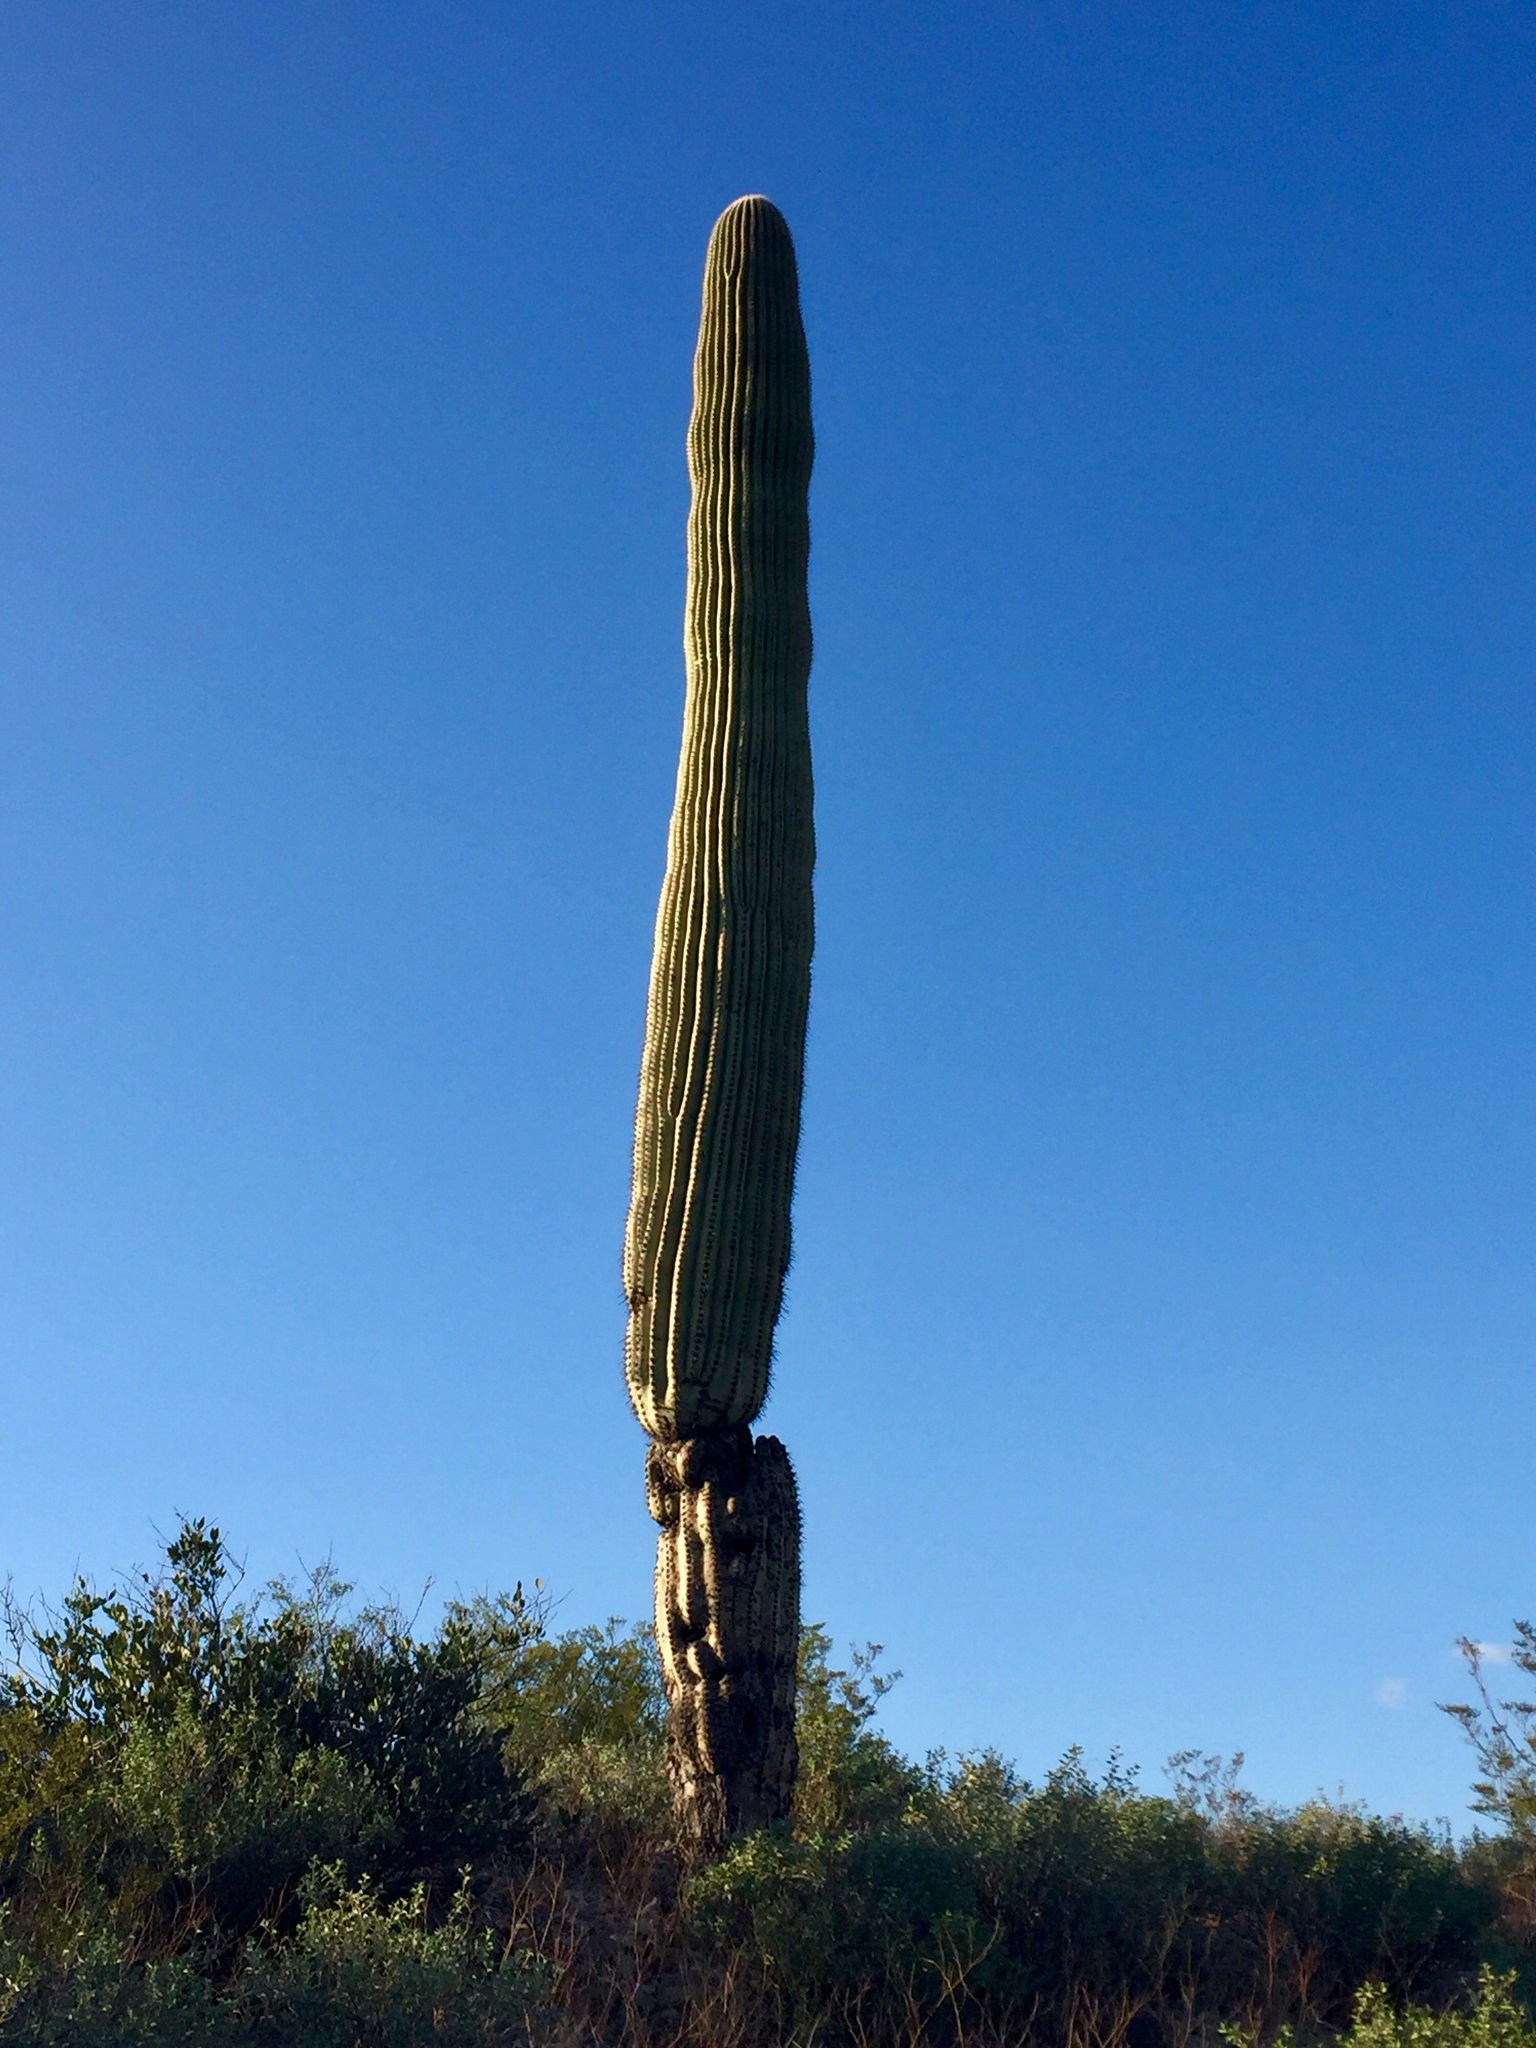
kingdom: Plantae
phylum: Tracheophyta
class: Magnoliopsida
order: Caryophyllales
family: Cactaceae
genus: Carnegiea
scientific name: Carnegiea gigantea
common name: Saguaro
